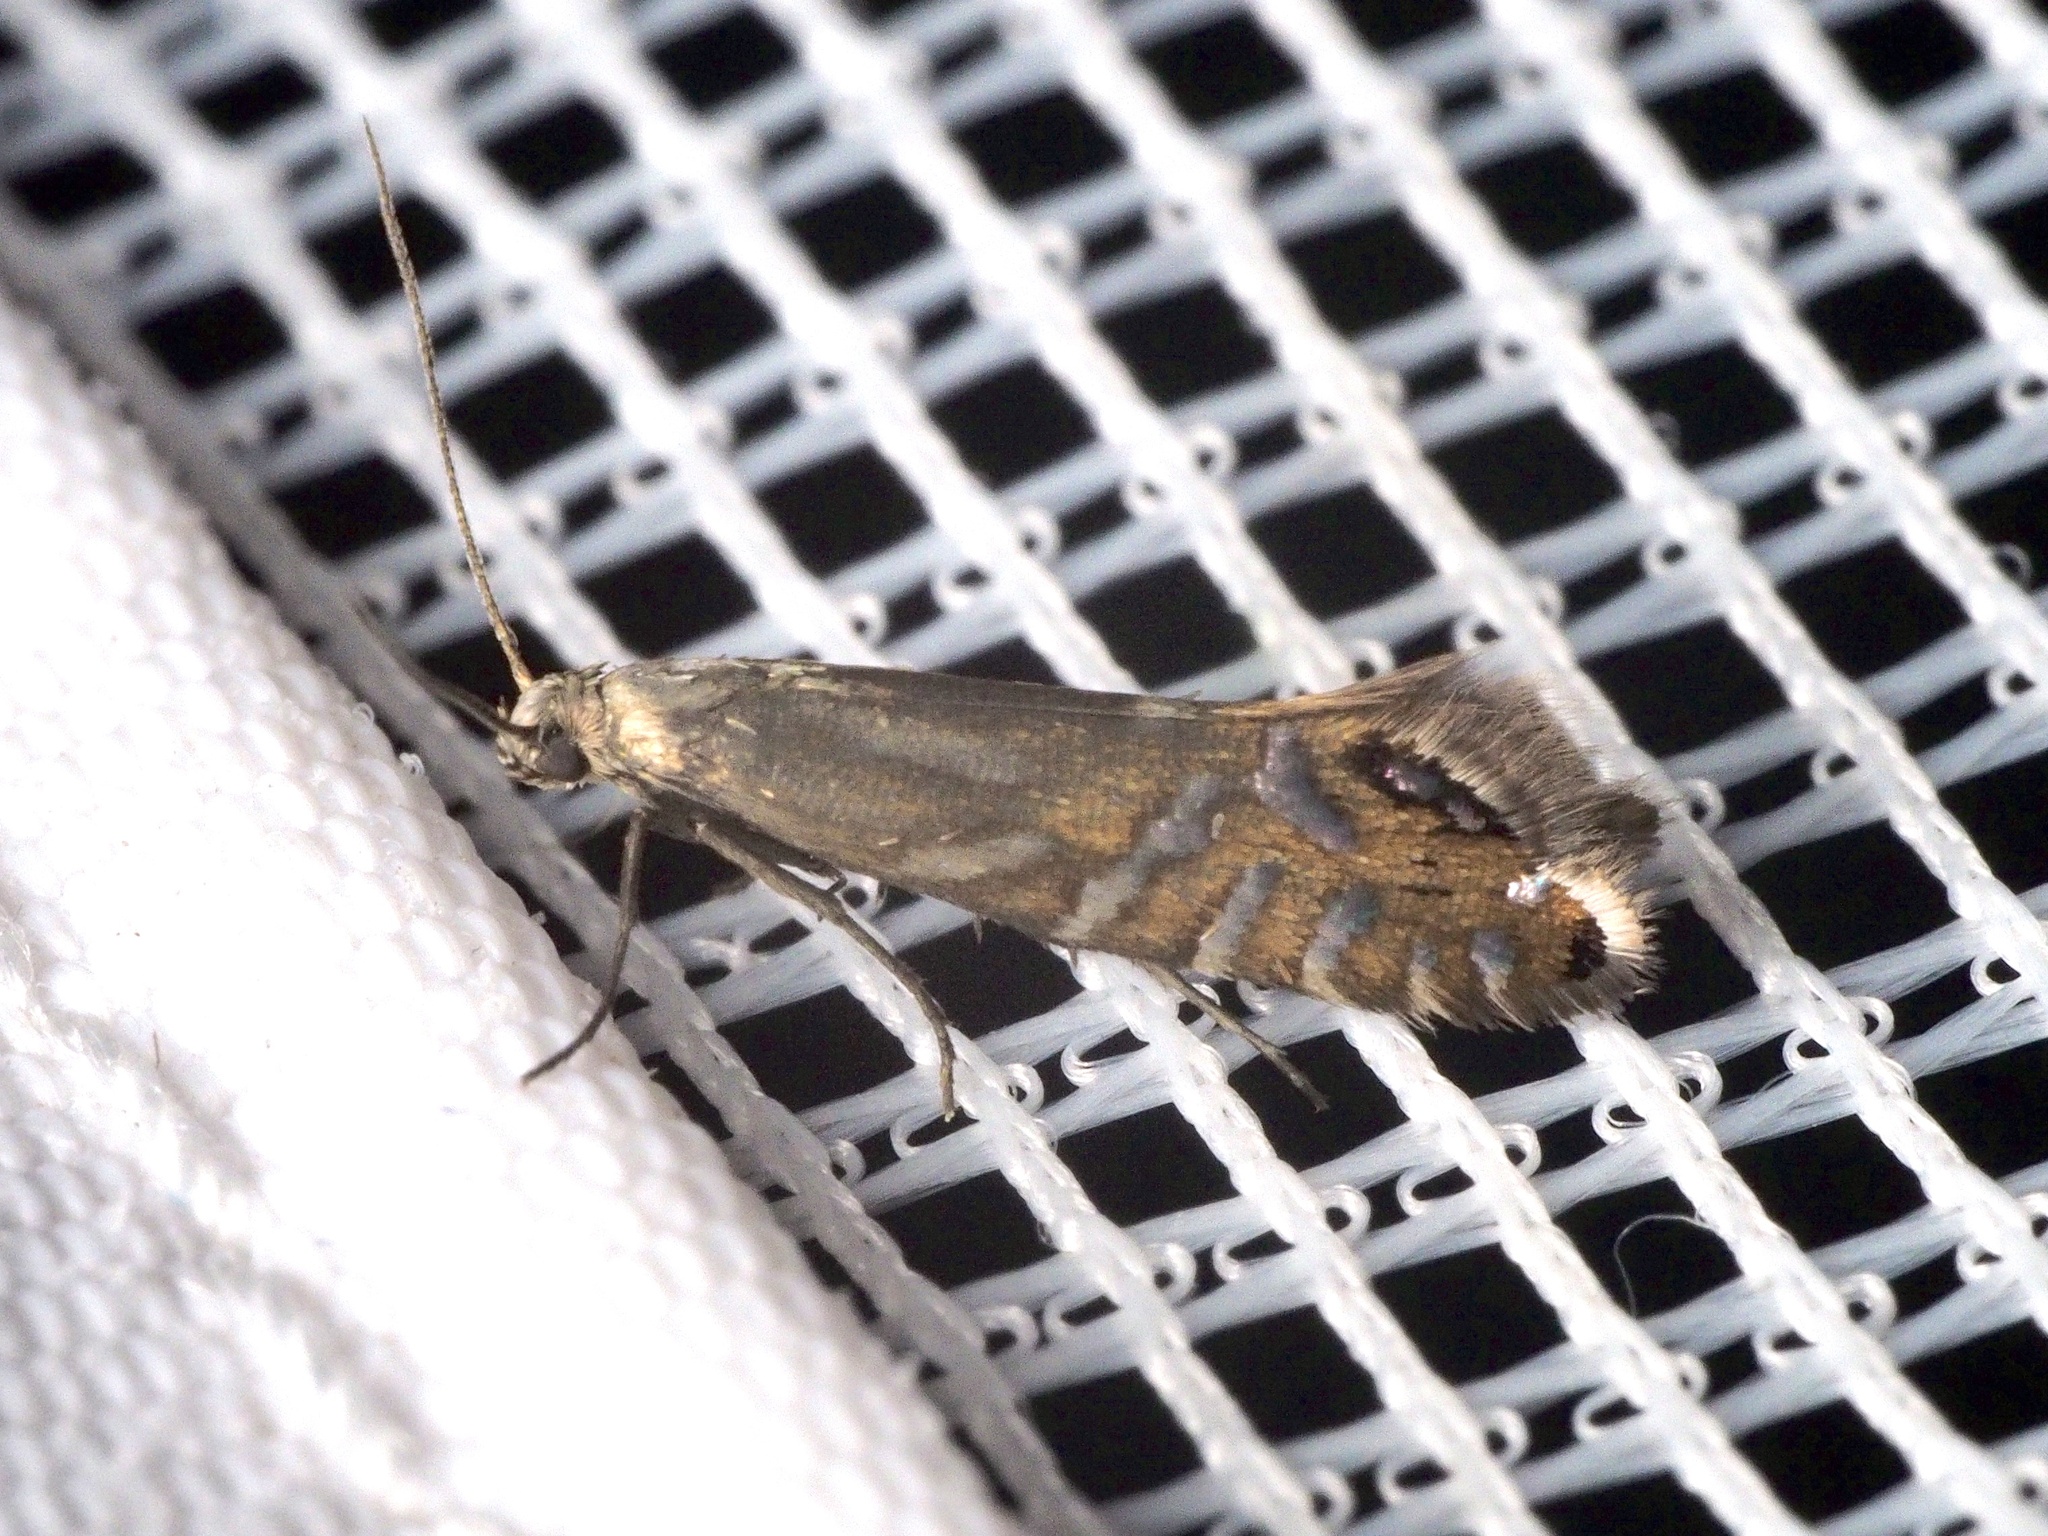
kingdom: Animalia
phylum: Arthropoda
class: Insecta
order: Lepidoptera
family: Glyphipterigidae
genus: Glyphipterix
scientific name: Glyphipterix thrasonella
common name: Speckled fanner
